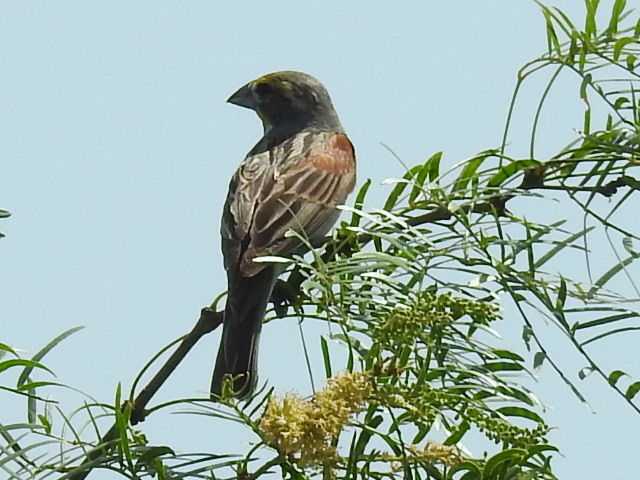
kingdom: Animalia
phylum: Chordata
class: Aves
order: Passeriformes
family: Cardinalidae
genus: Spiza
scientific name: Spiza americana
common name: Dickcissel
